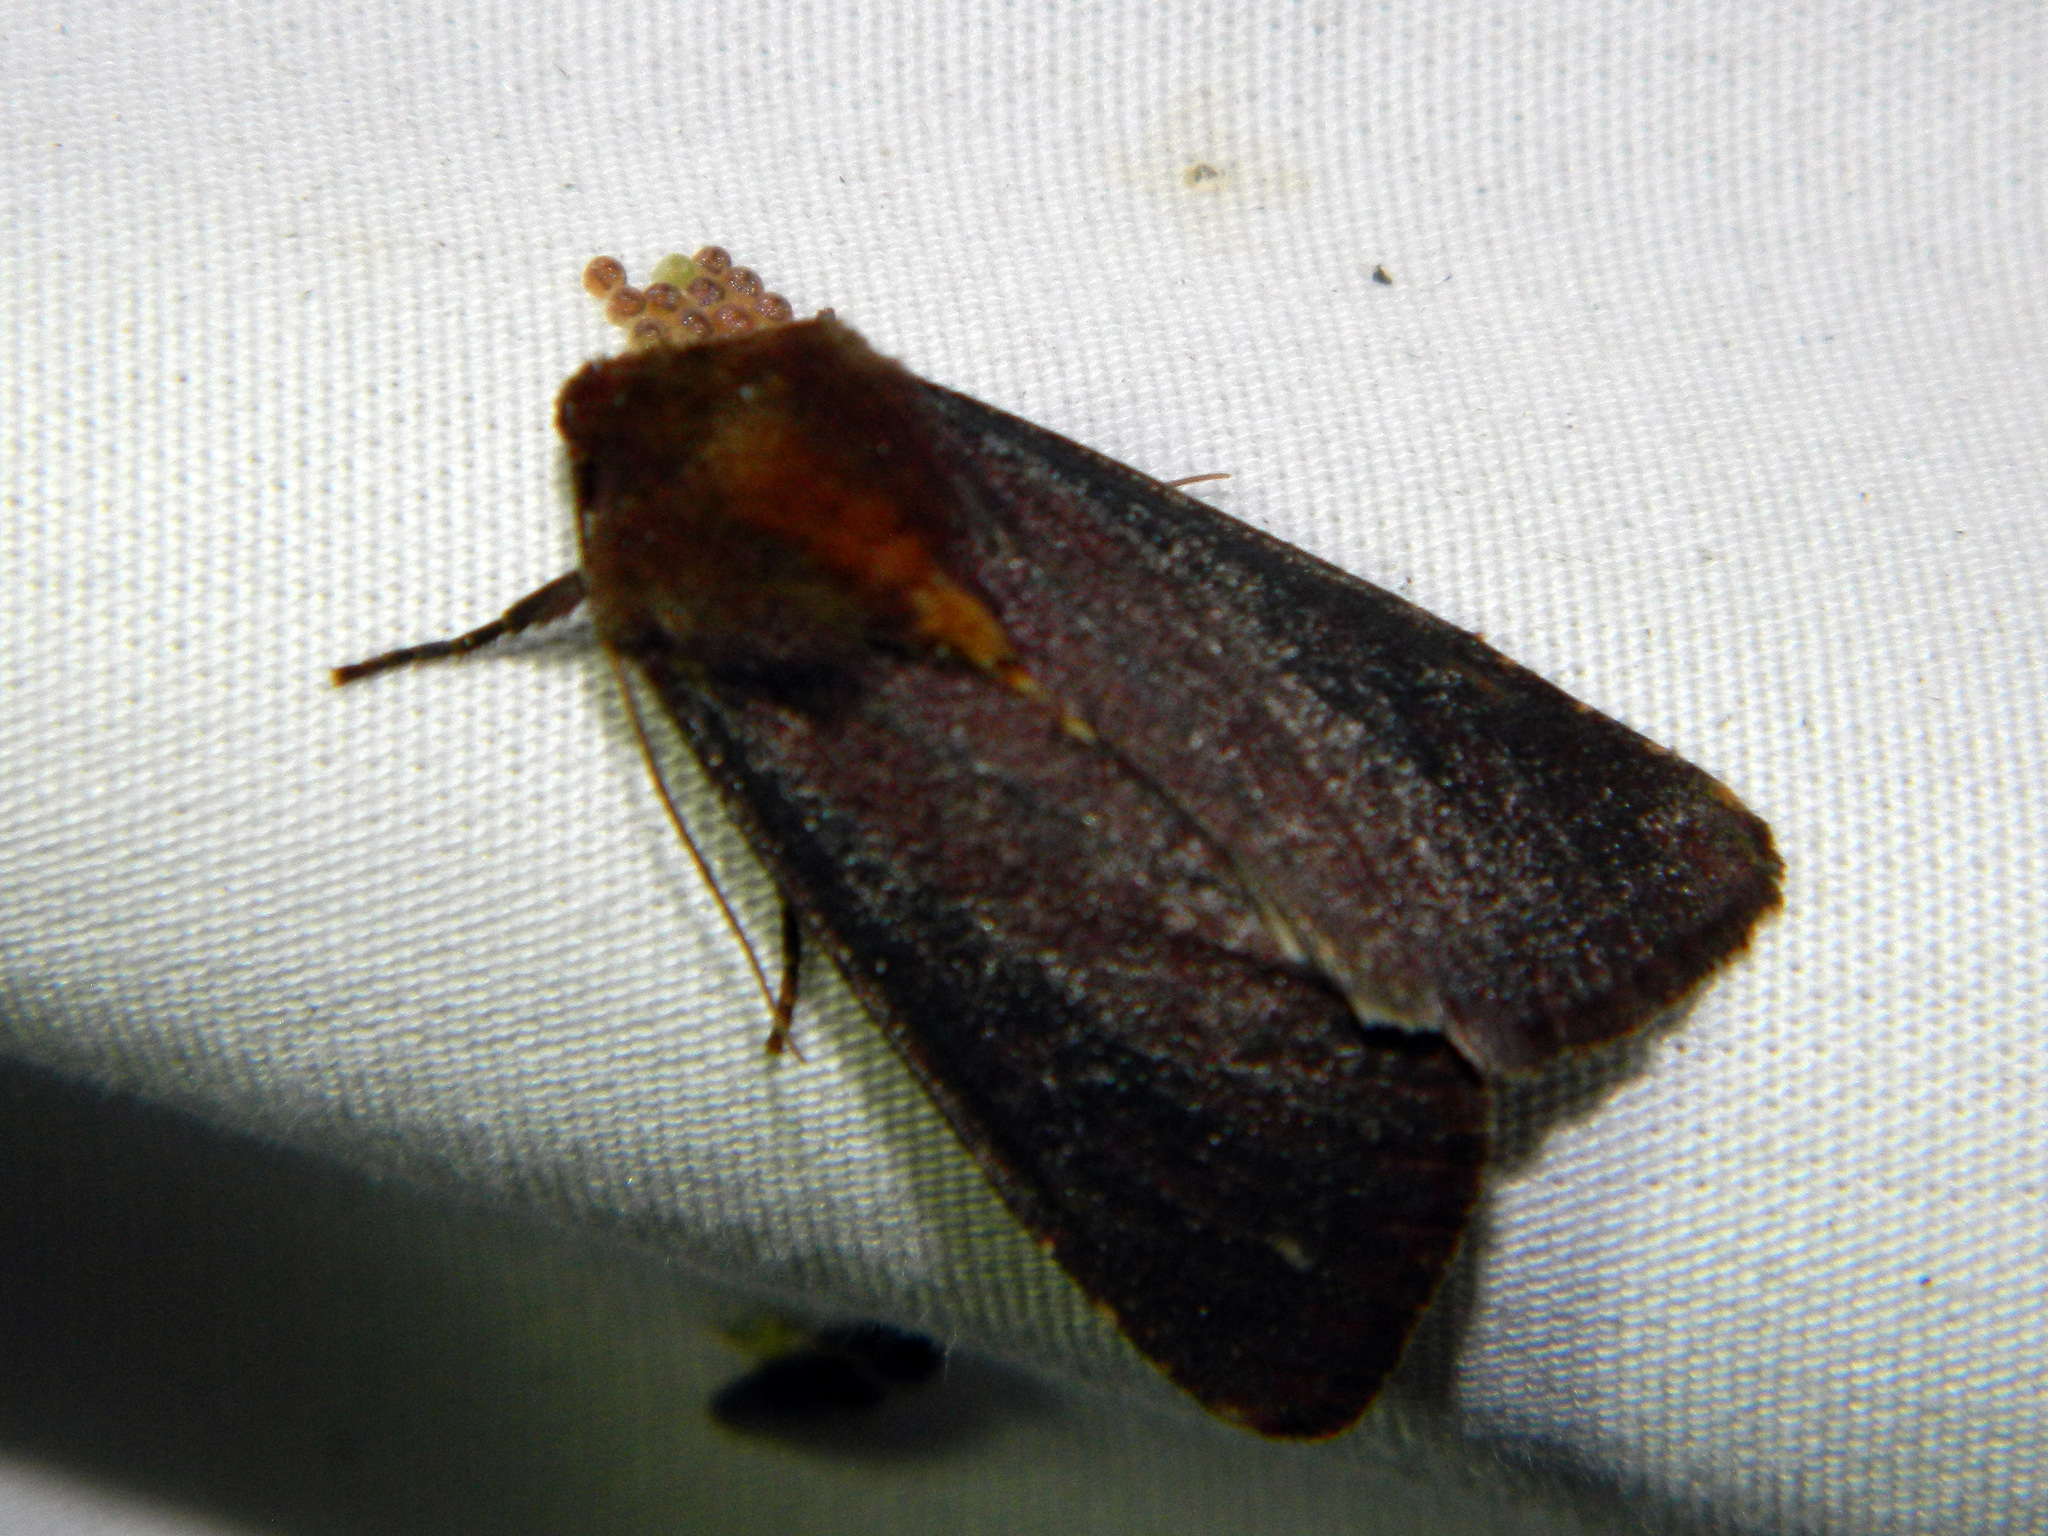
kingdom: Animalia
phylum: Arthropoda
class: Insecta
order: Lepidoptera
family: Noctuidae
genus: Sideridis
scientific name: Sideridis maryx
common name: Maroonwing moth
